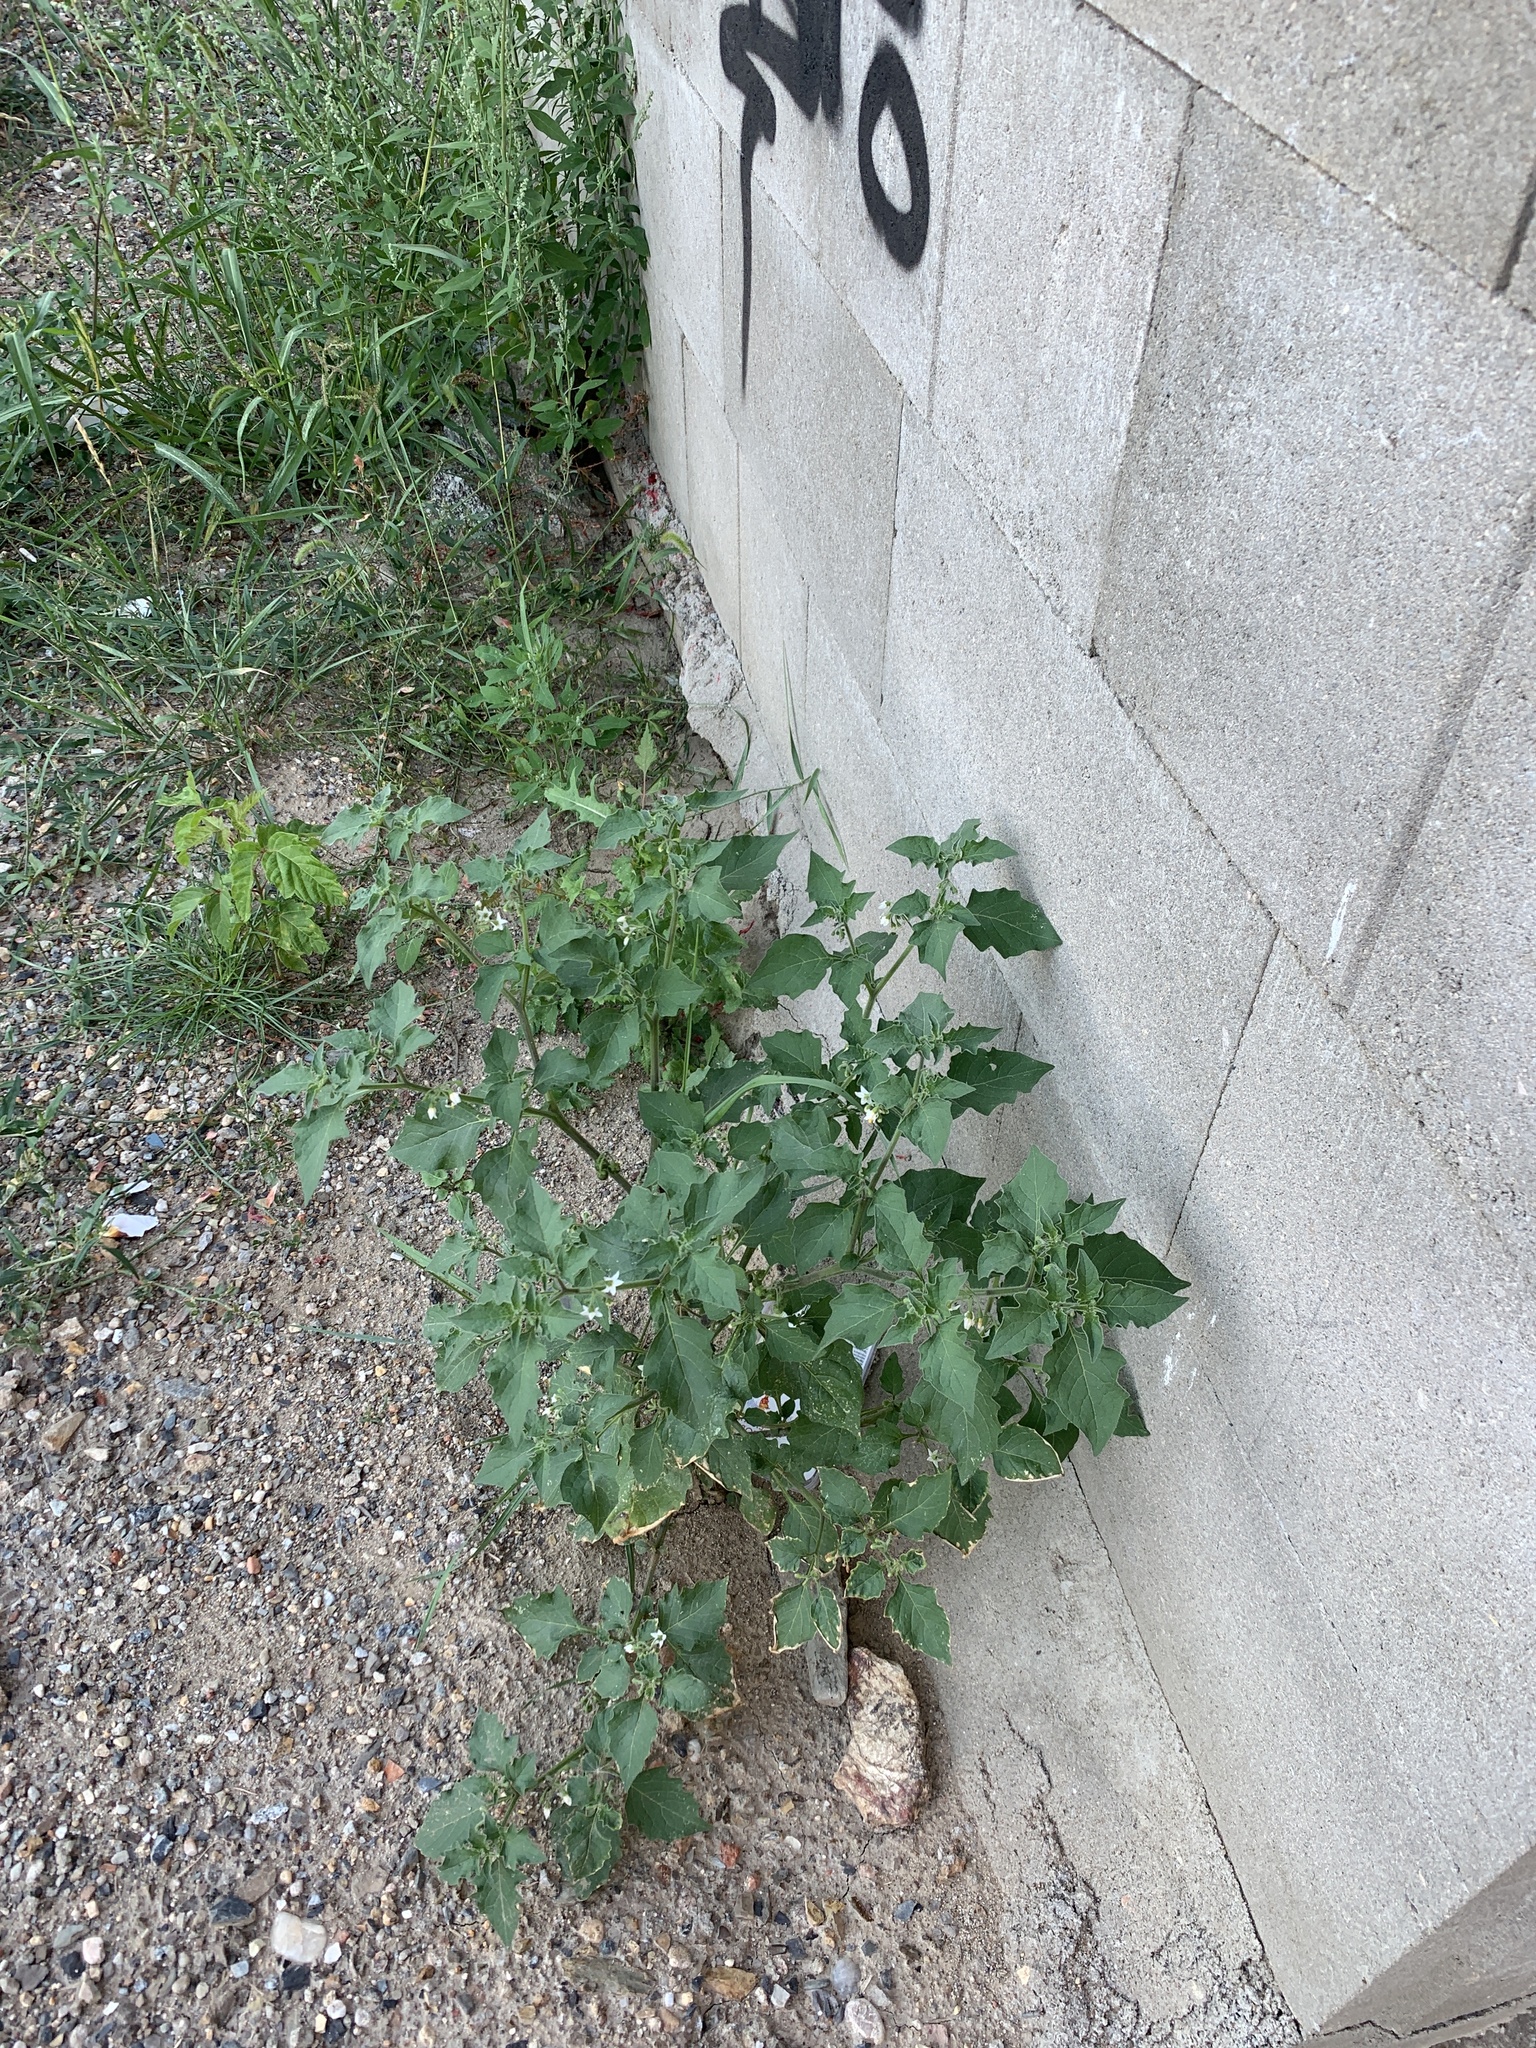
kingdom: Plantae
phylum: Tracheophyta
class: Magnoliopsida
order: Solanales
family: Solanaceae
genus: Solanum
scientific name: Solanum nigrum
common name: Black nightshade
